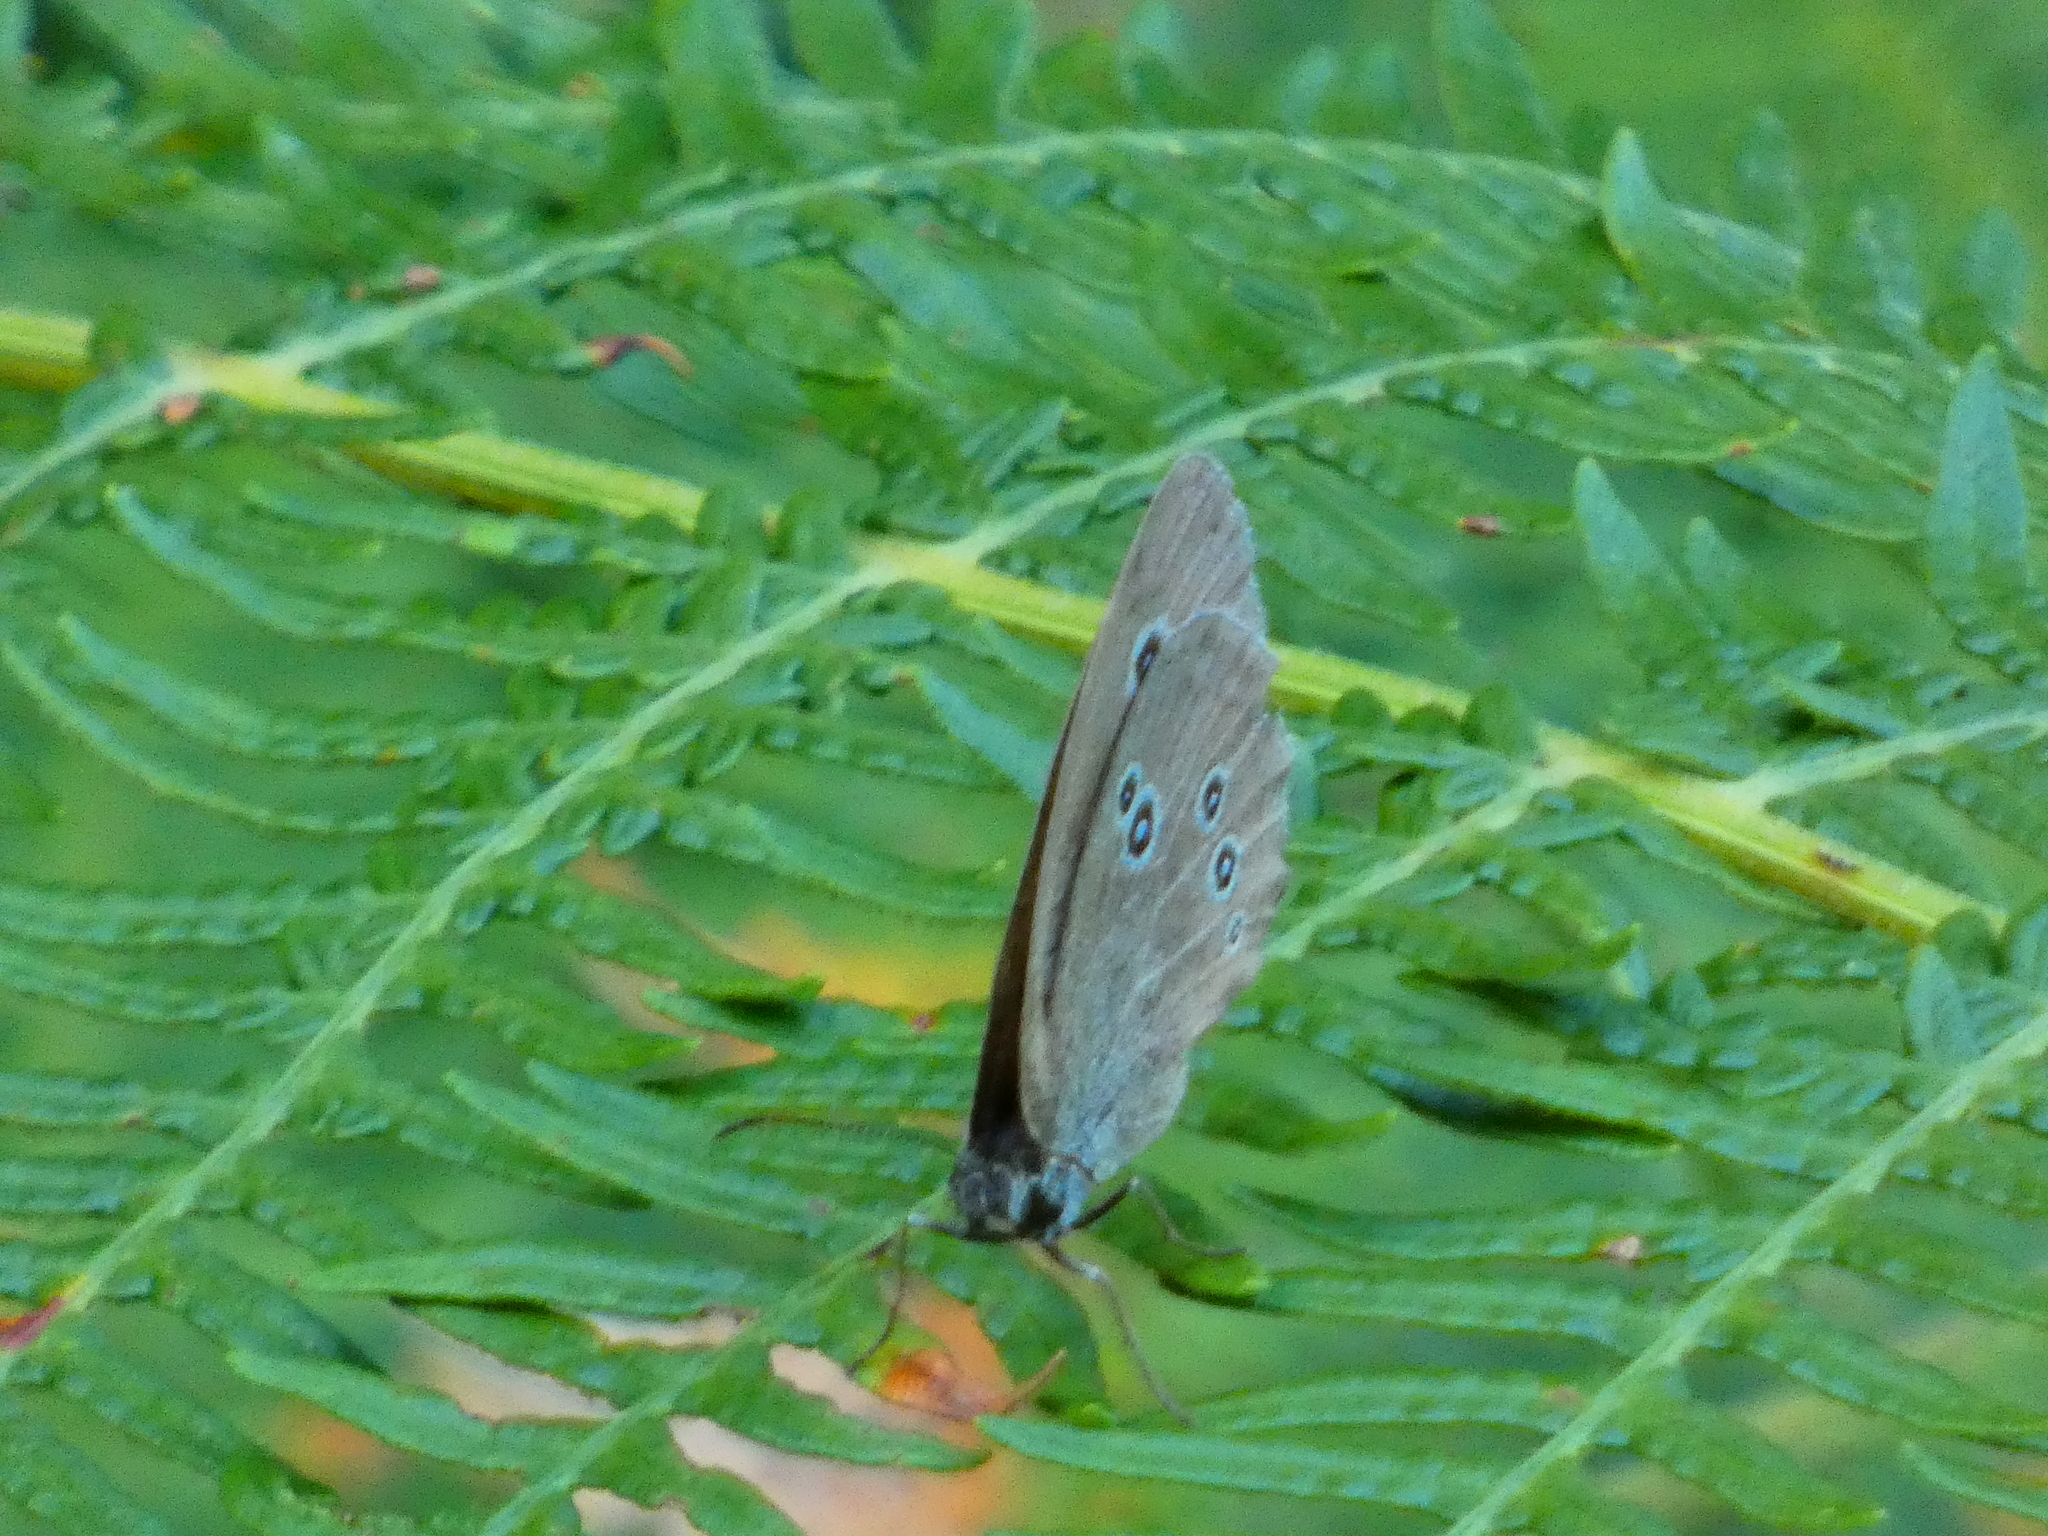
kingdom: Animalia
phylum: Arthropoda
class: Insecta
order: Lepidoptera
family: Nymphalidae
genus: Aphantopus
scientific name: Aphantopus hyperantus
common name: Ringlet
